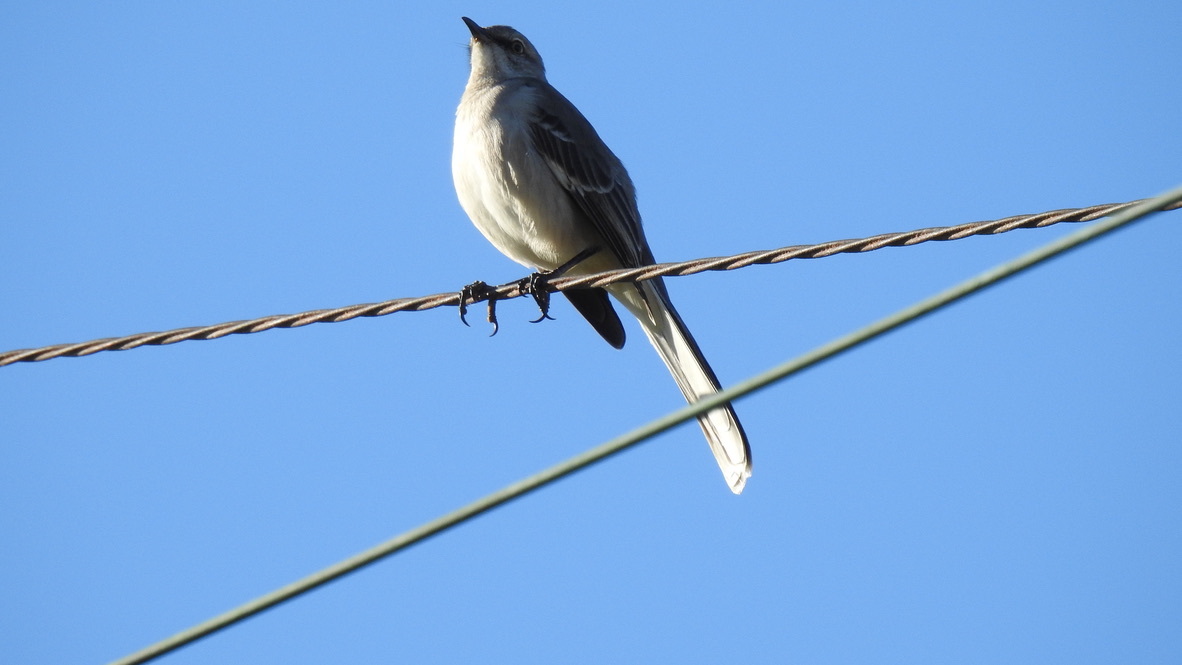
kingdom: Animalia
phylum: Chordata
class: Aves
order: Passeriformes
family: Mimidae
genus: Mimus
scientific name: Mimus polyglottos
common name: Northern mockingbird
